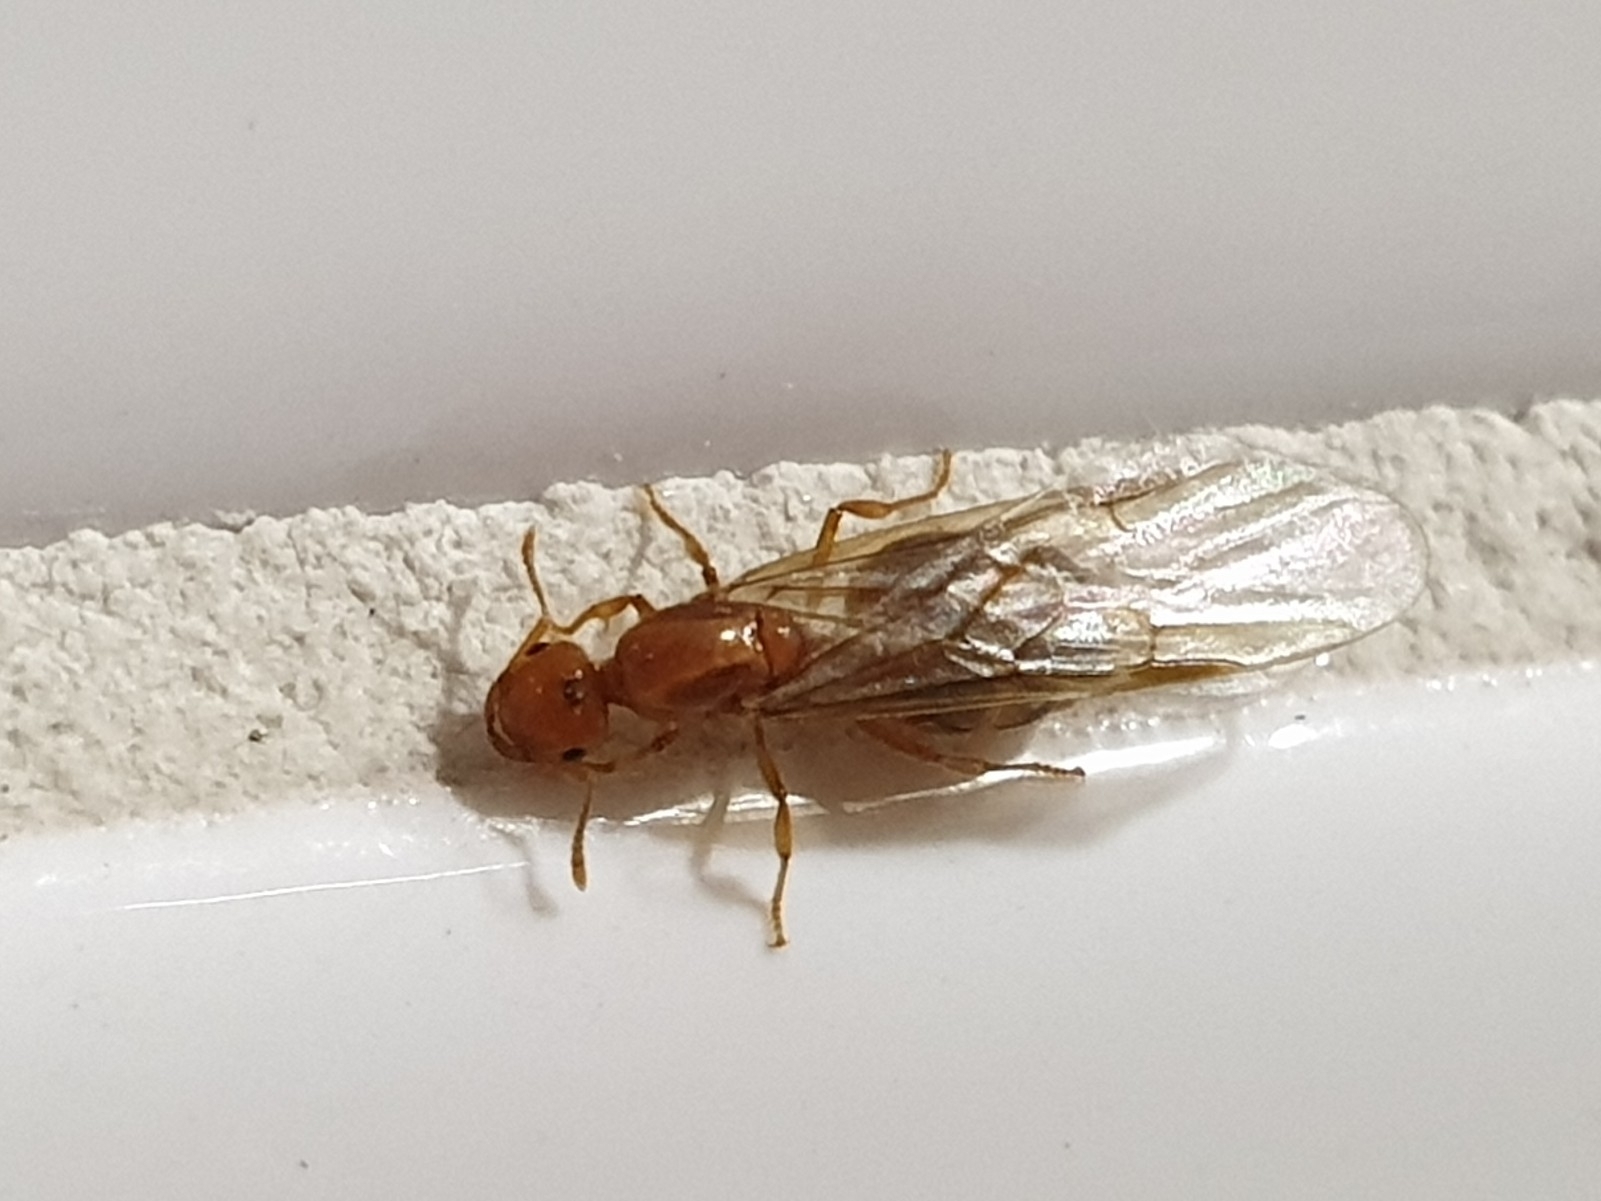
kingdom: Animalia
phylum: Arthropoda
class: Insecta
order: Hymenoptera
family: Formicidae
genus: Crematogaster
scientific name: Crematogaster osakensis
